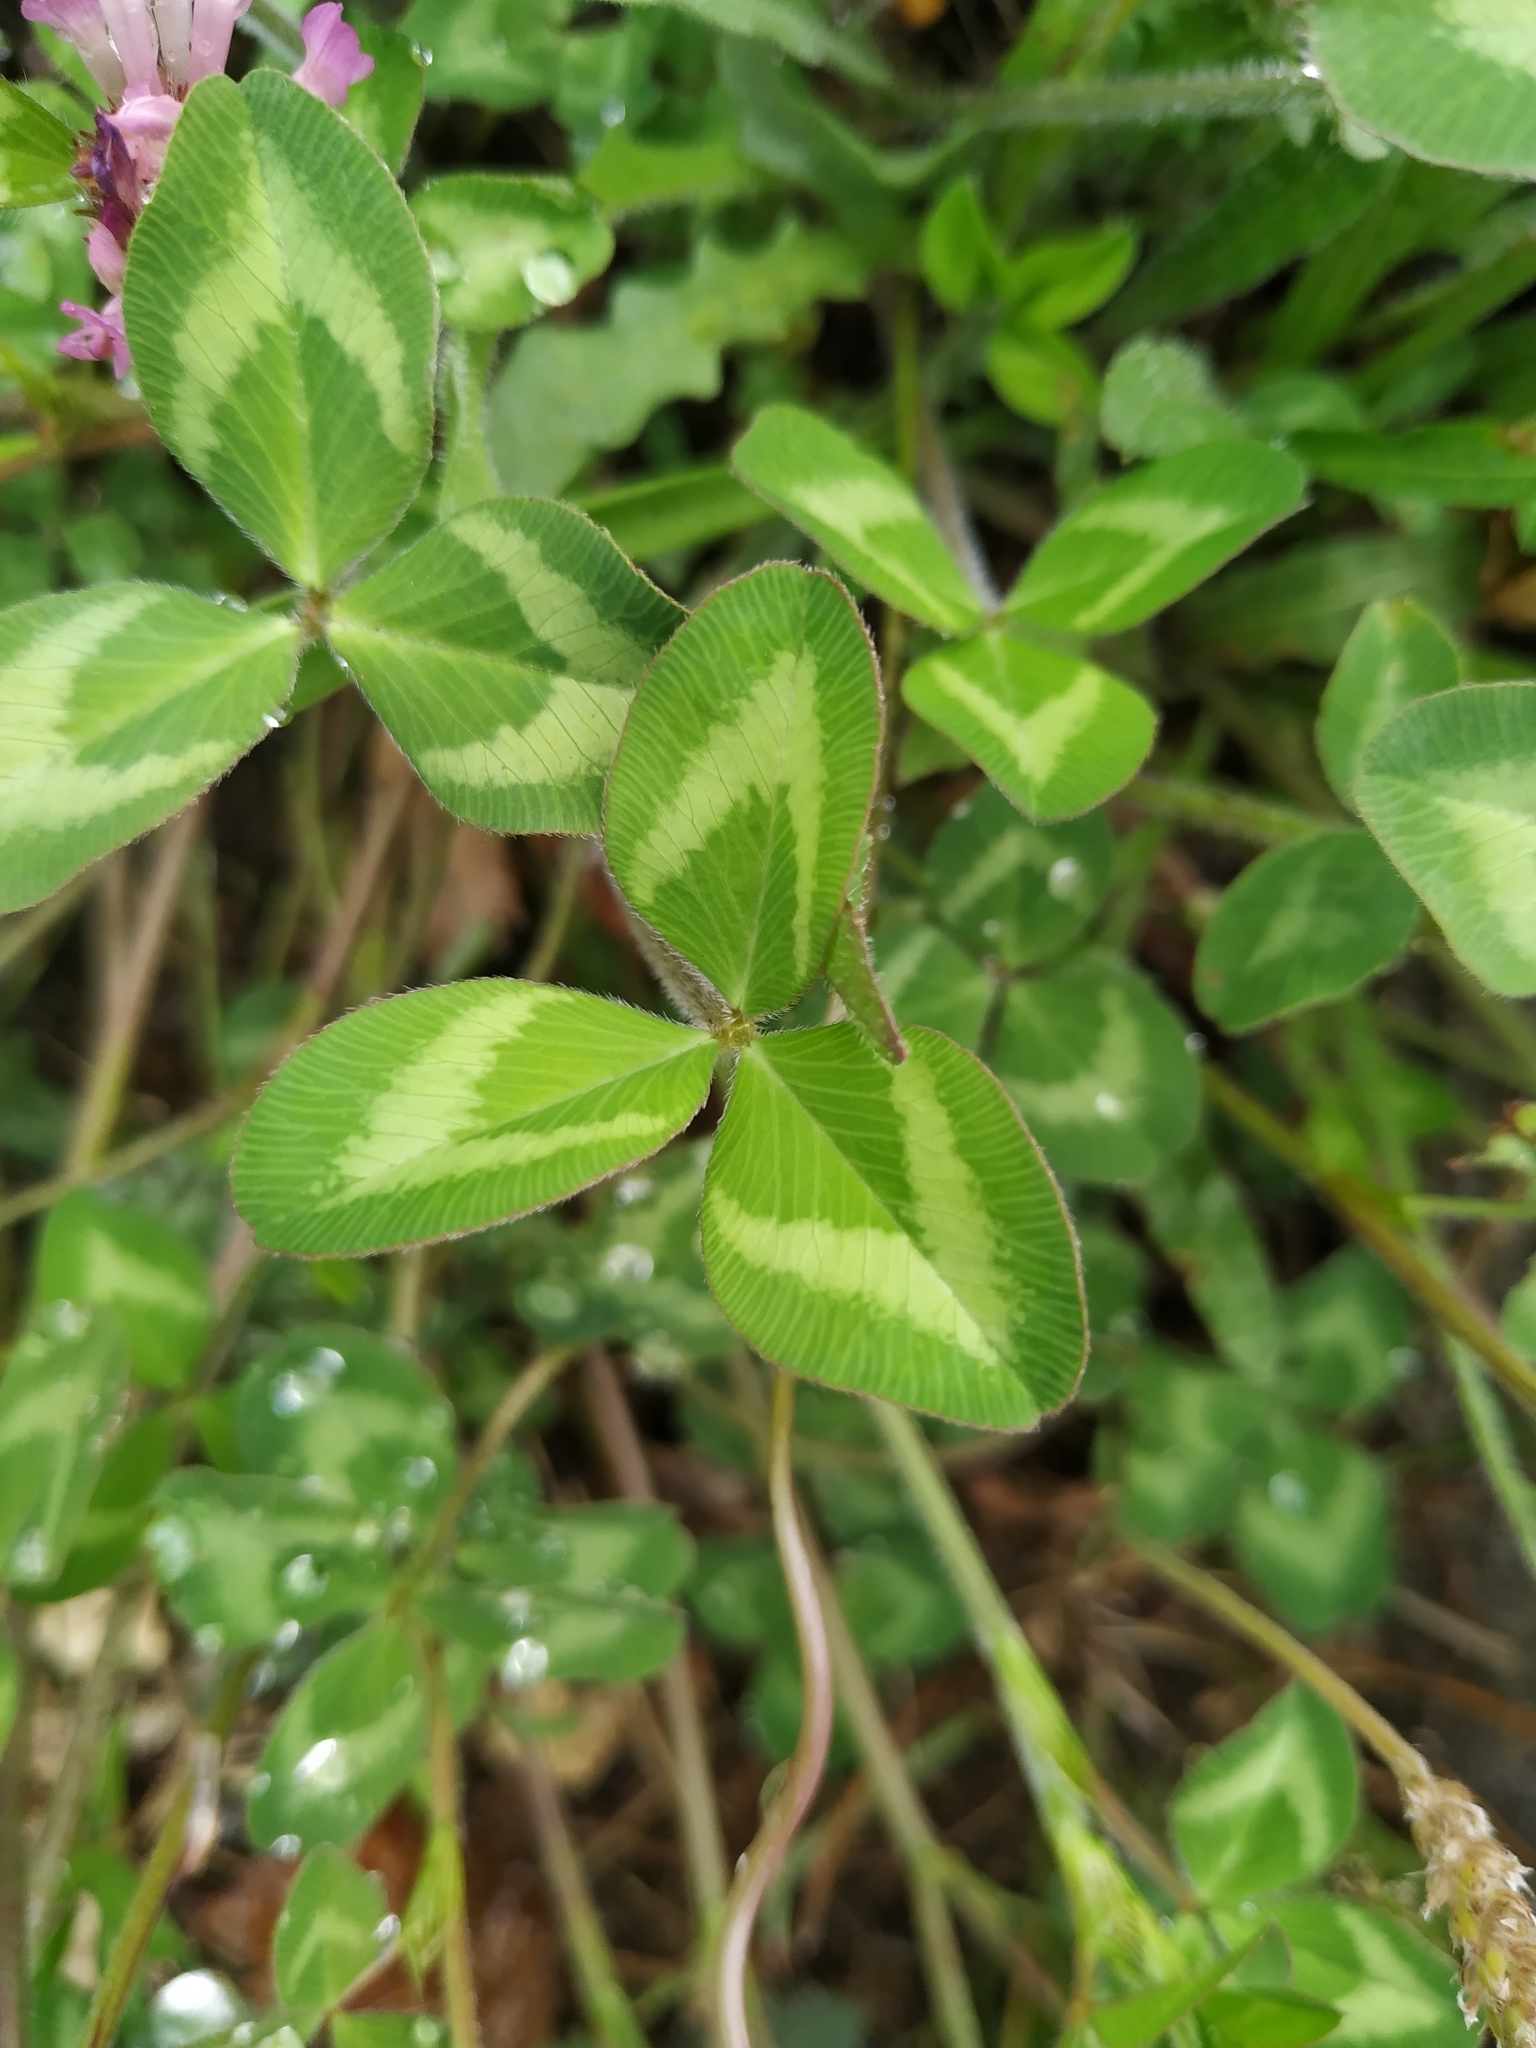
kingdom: Plantae
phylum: Tracheophyta
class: Magnoliopsida
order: Fabales
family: Fabaceae
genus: Trifolium
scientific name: Trifolium pratense
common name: Red clover
